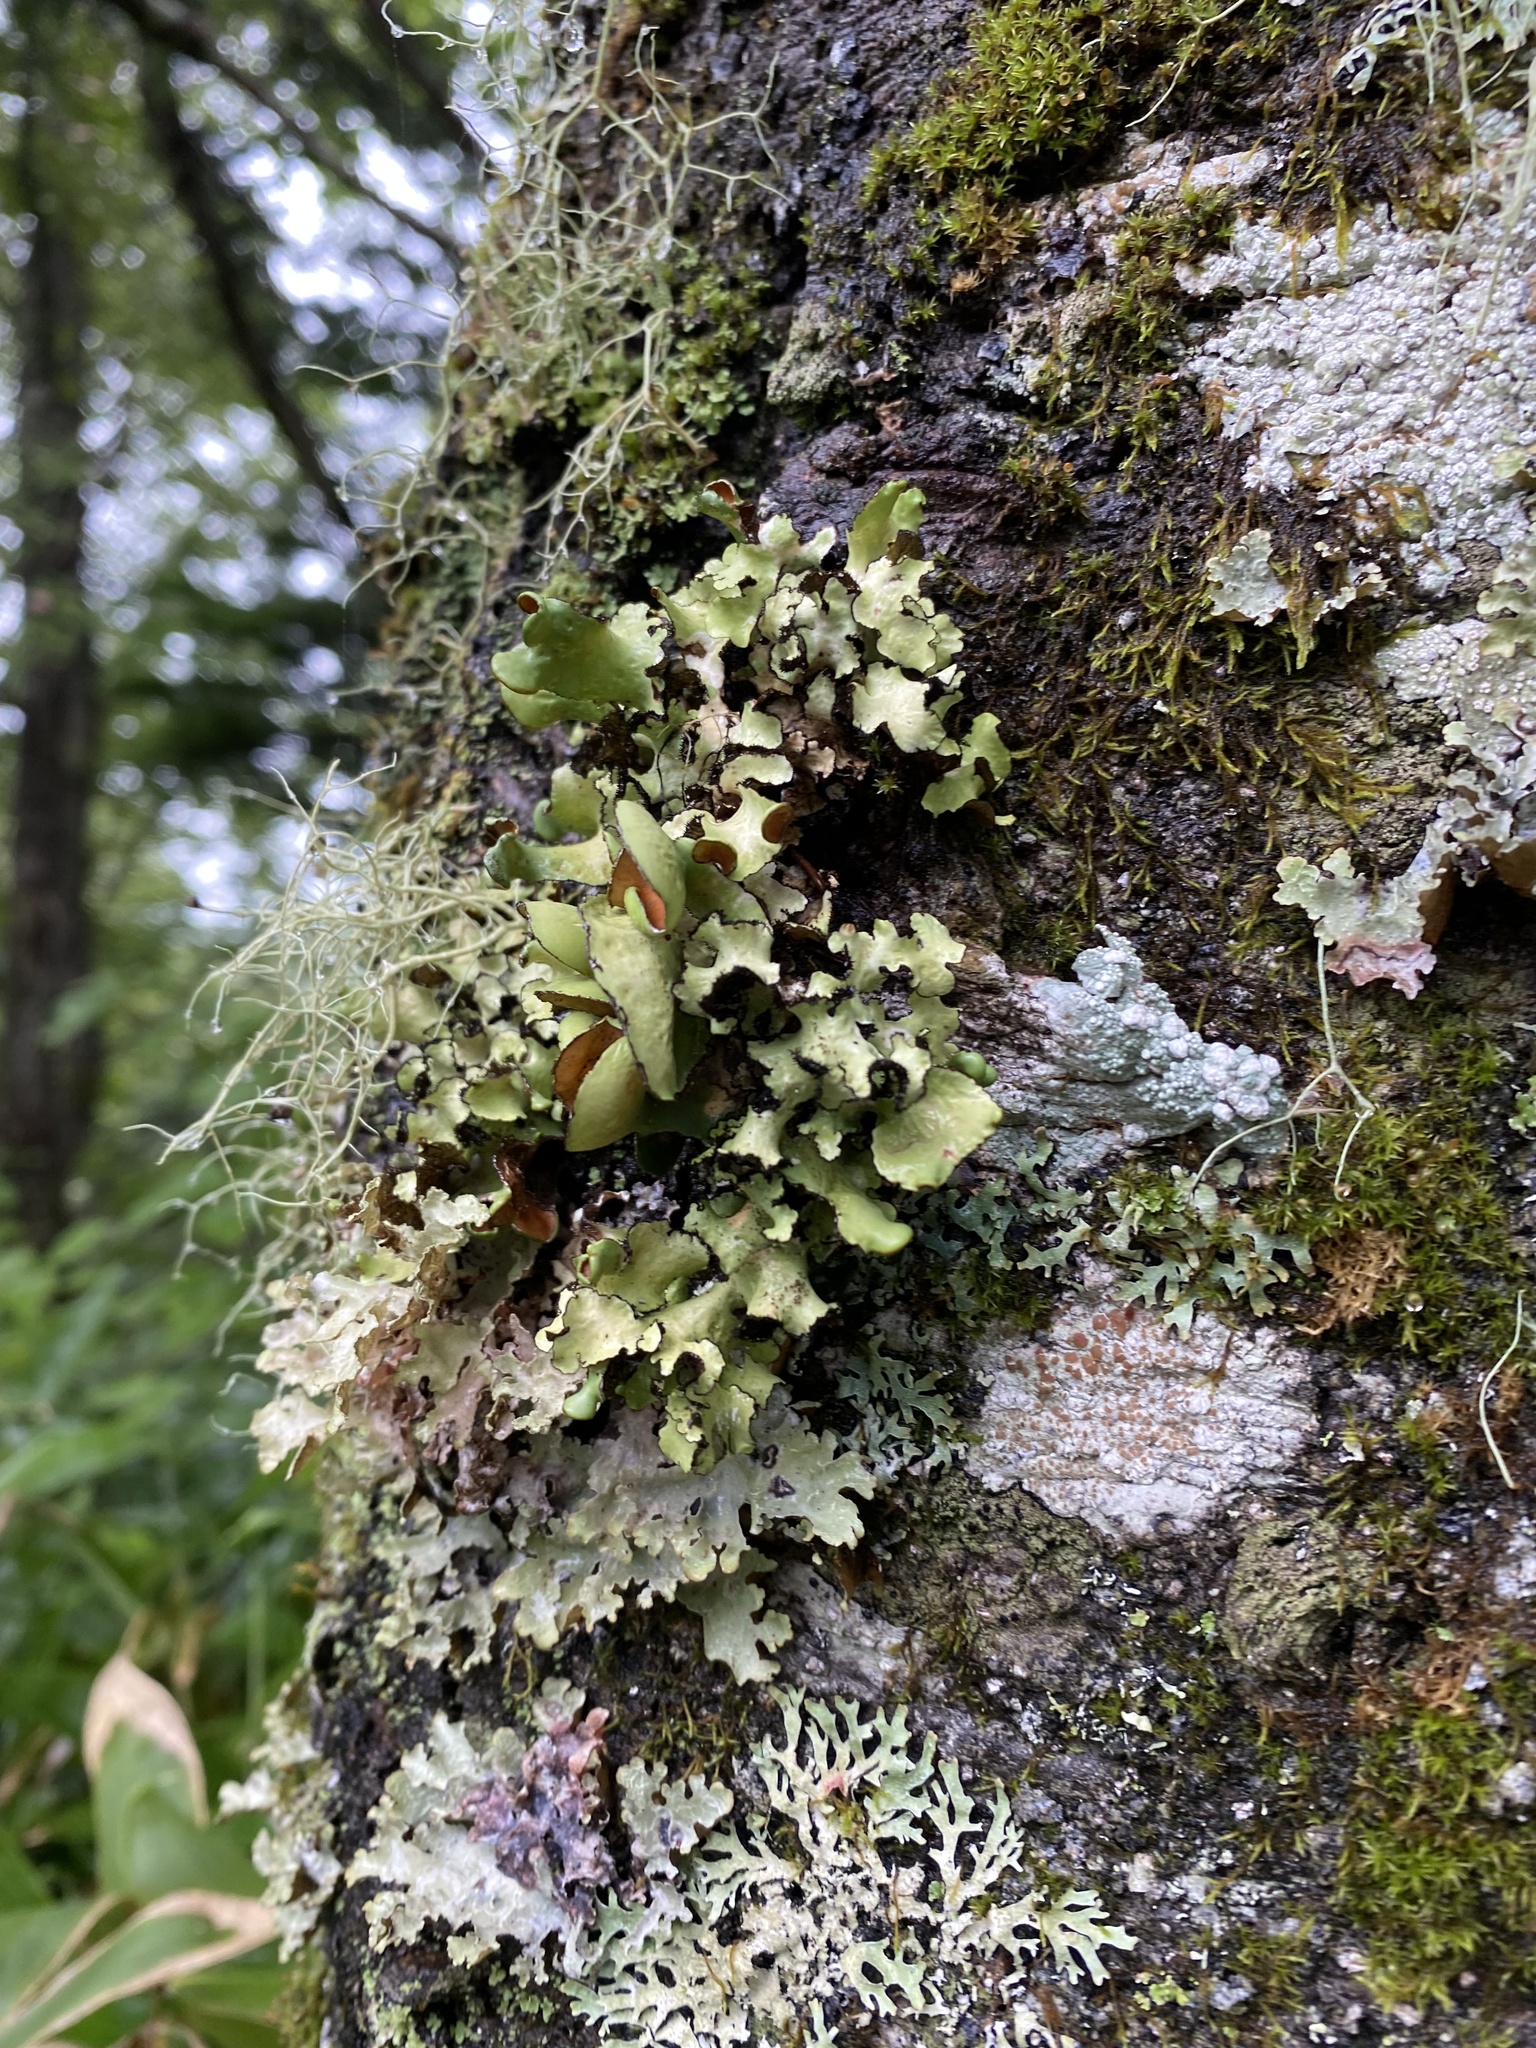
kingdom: Fungi
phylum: Ascomycota
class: Lecanoromycetes
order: Peltigerales
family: Peltigeraceae
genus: Peltigera
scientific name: Peltigera
